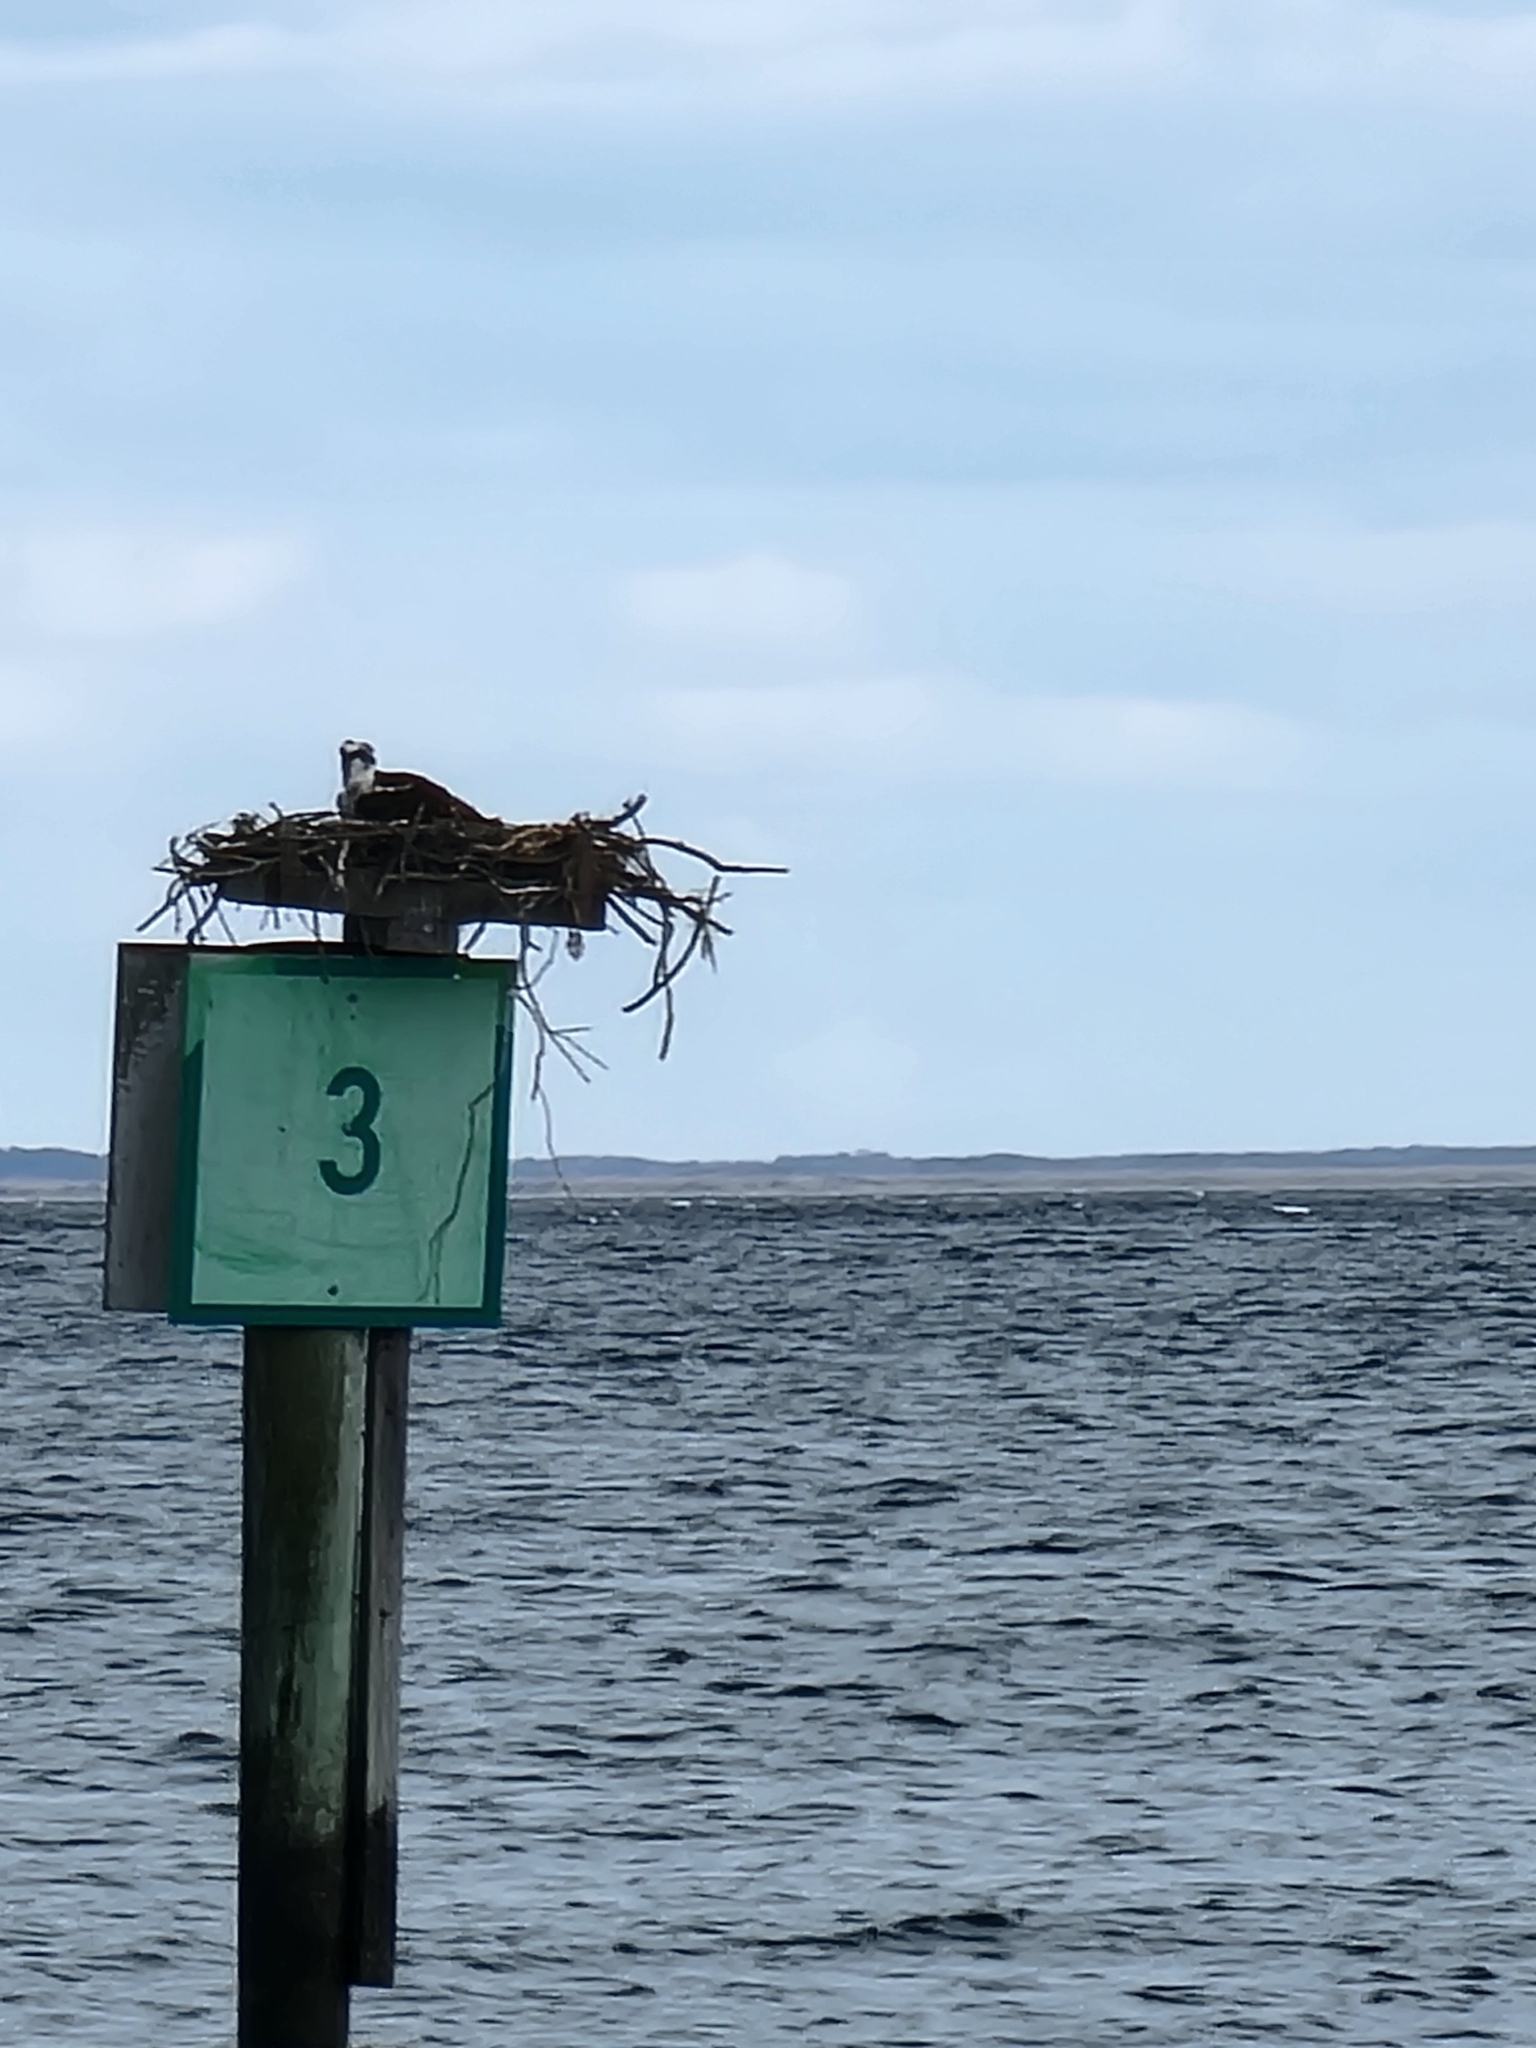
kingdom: Animalia
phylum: Chordata
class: Aves
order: Accipitriformes
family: Pandionidae
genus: Pandion
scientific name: Pandion haliaetus
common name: Osprey
